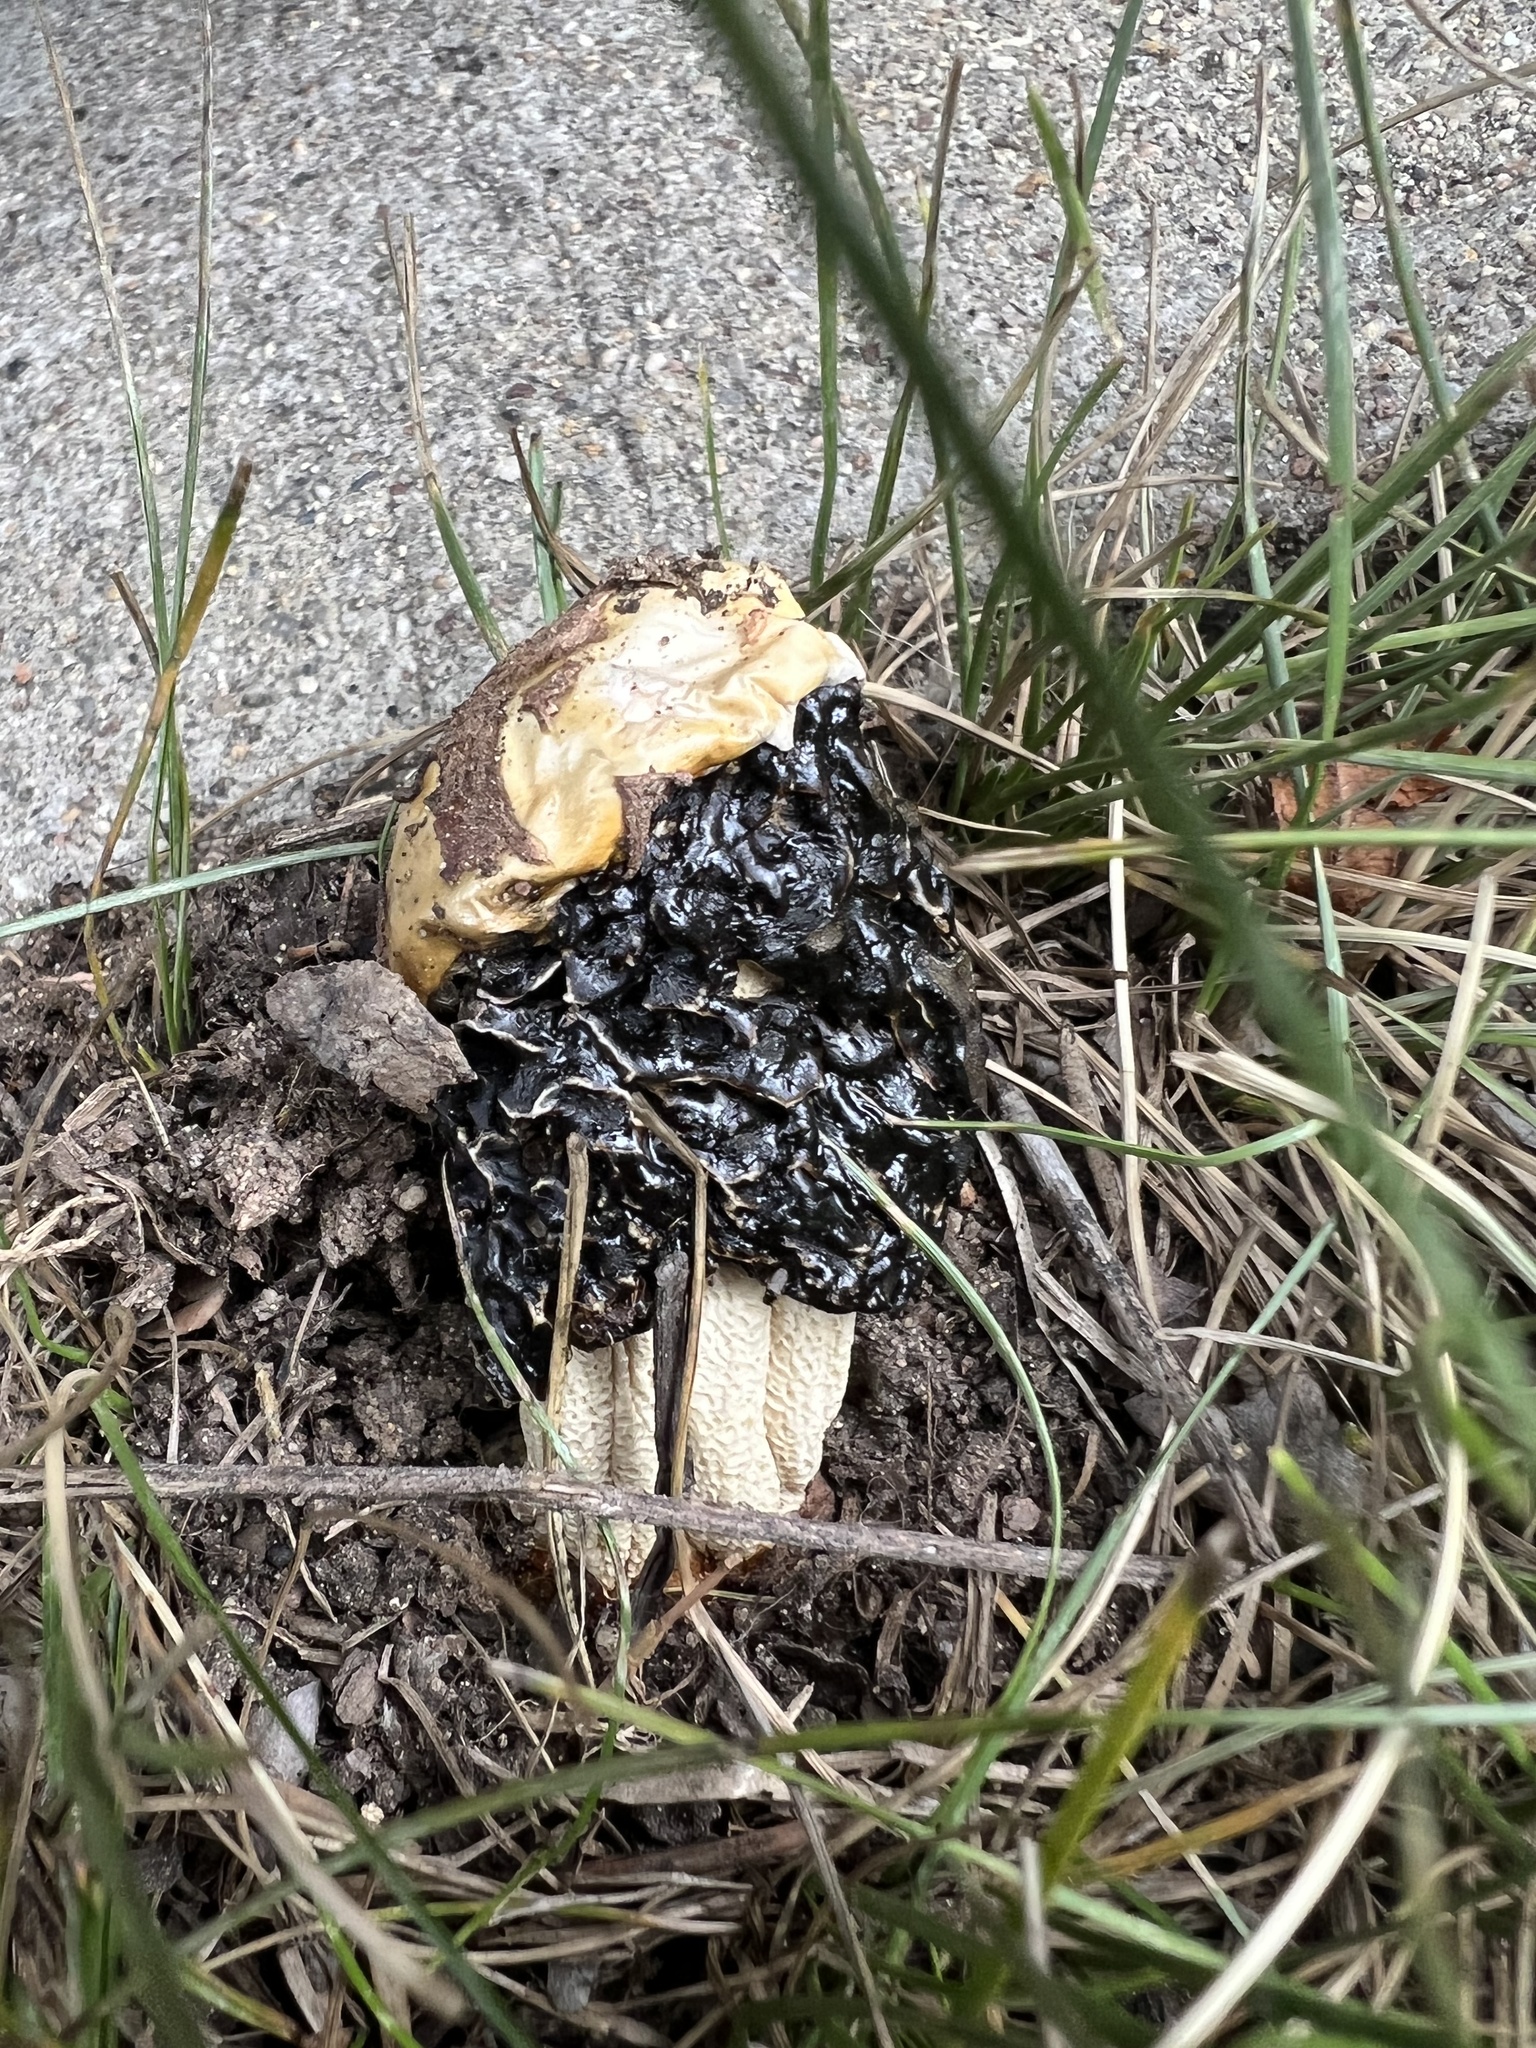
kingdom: Fungi
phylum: Basidiomycota
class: Agaricomycetes
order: Phallales
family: Phallaceae
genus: Phallus
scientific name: Phallus hadriani
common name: Sand stinkhorn
